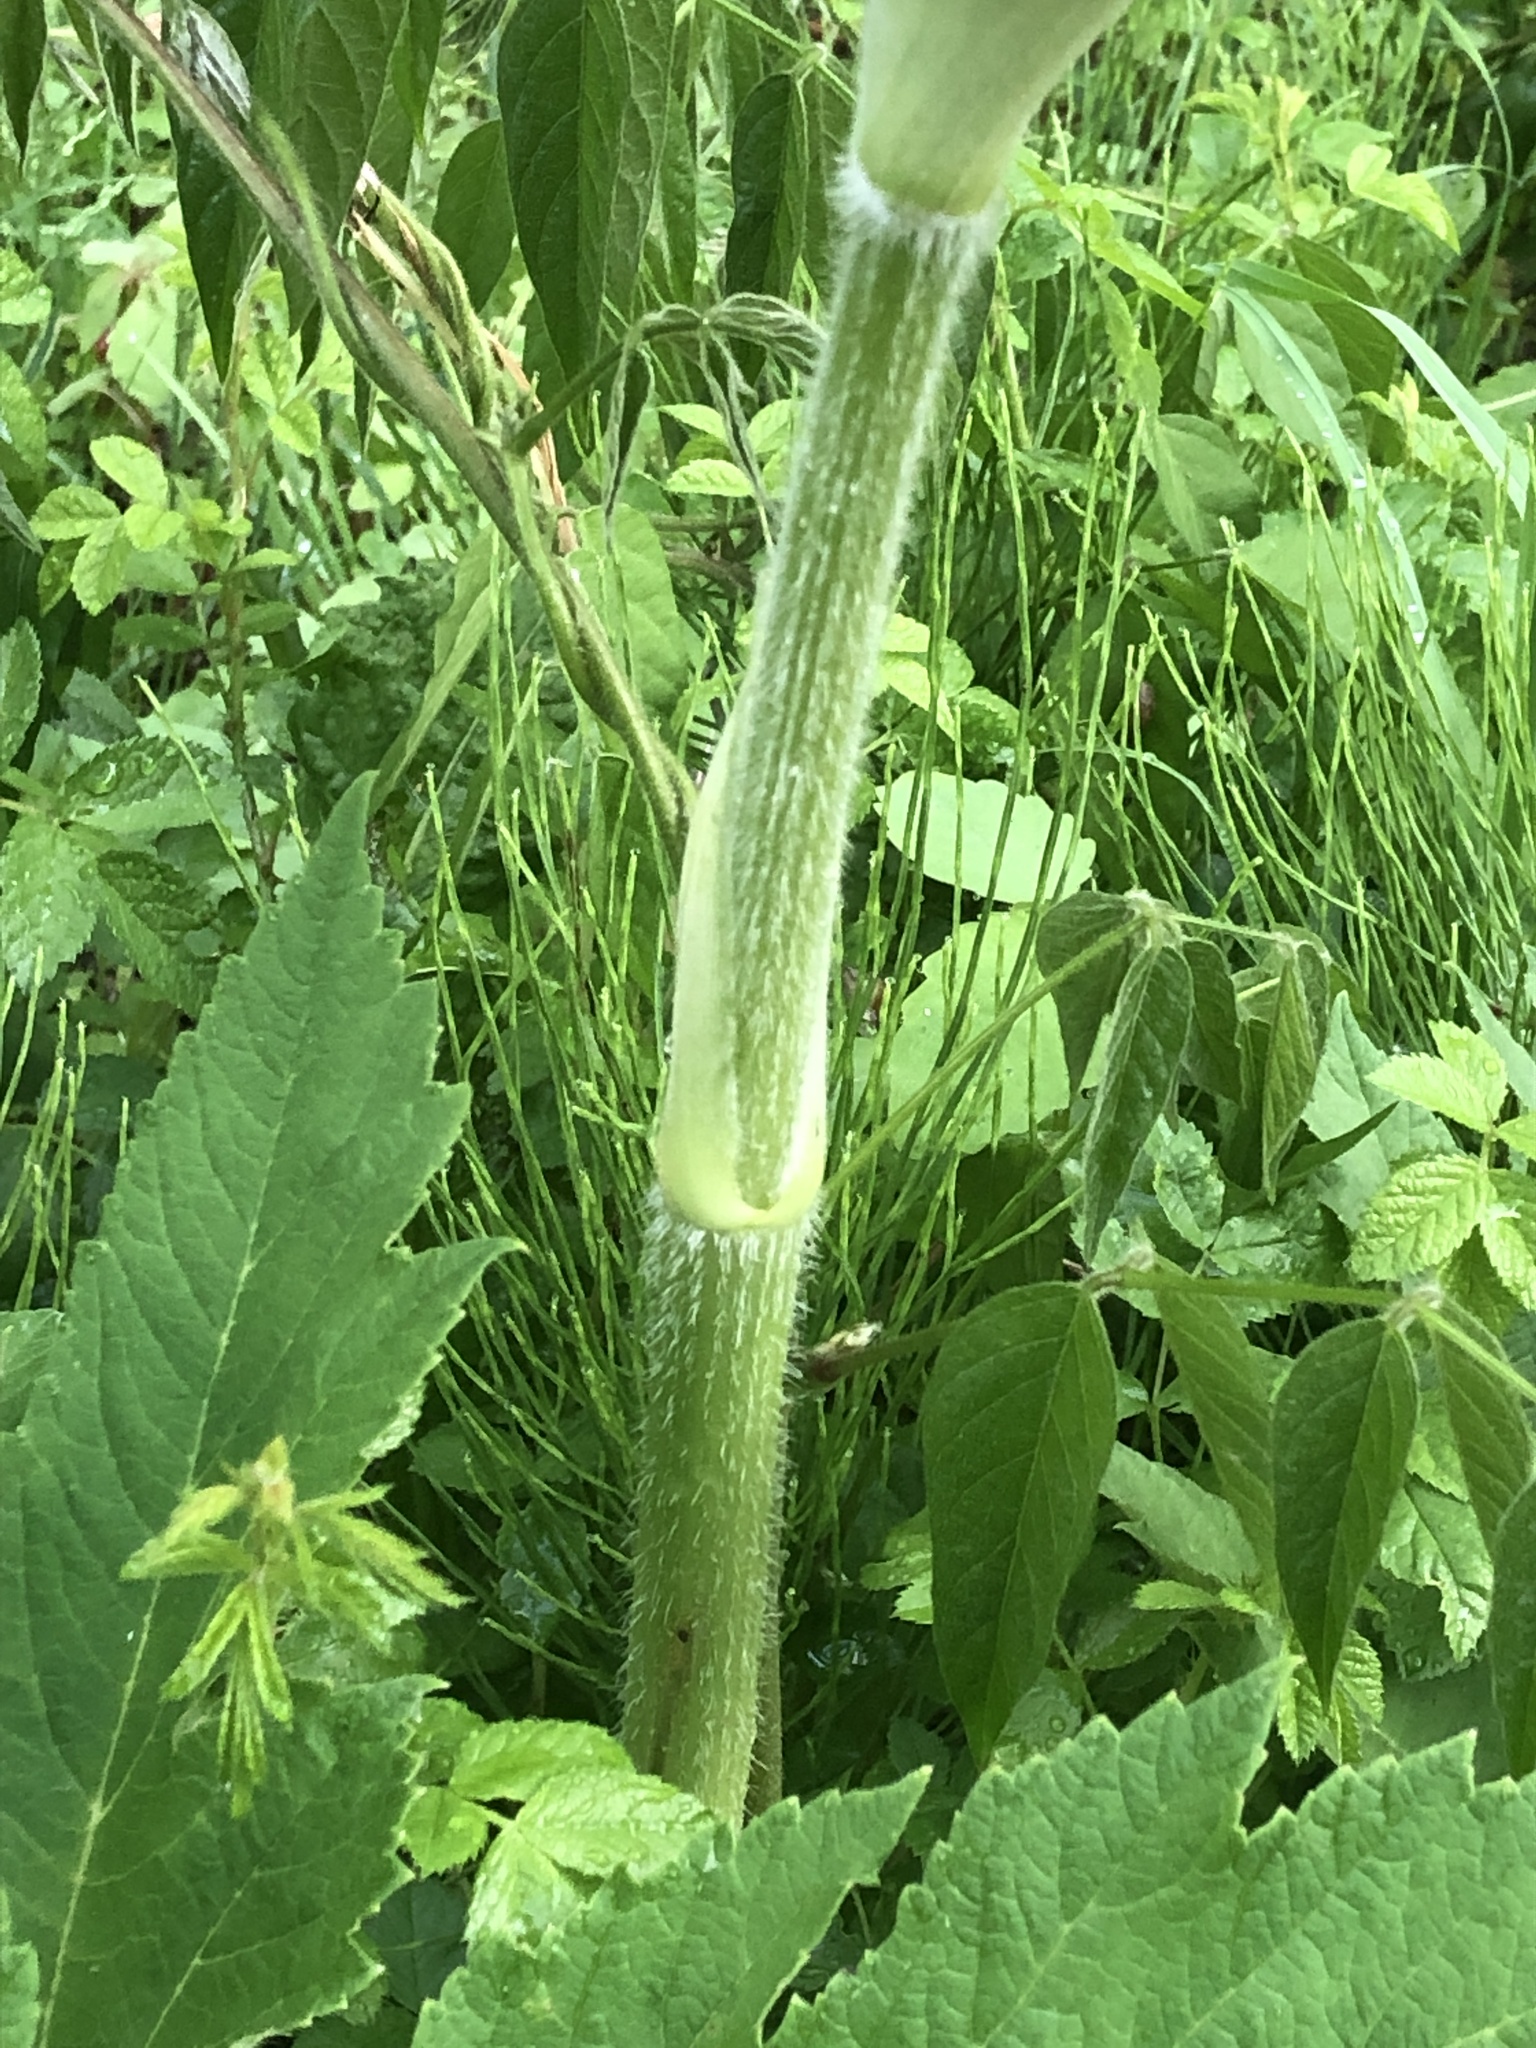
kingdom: Plantae
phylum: Tracheophyta
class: Magnoliopsida
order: Apiales
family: Apiaceae
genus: Heracleum
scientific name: Heracleum maximum
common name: American cow parsnip
